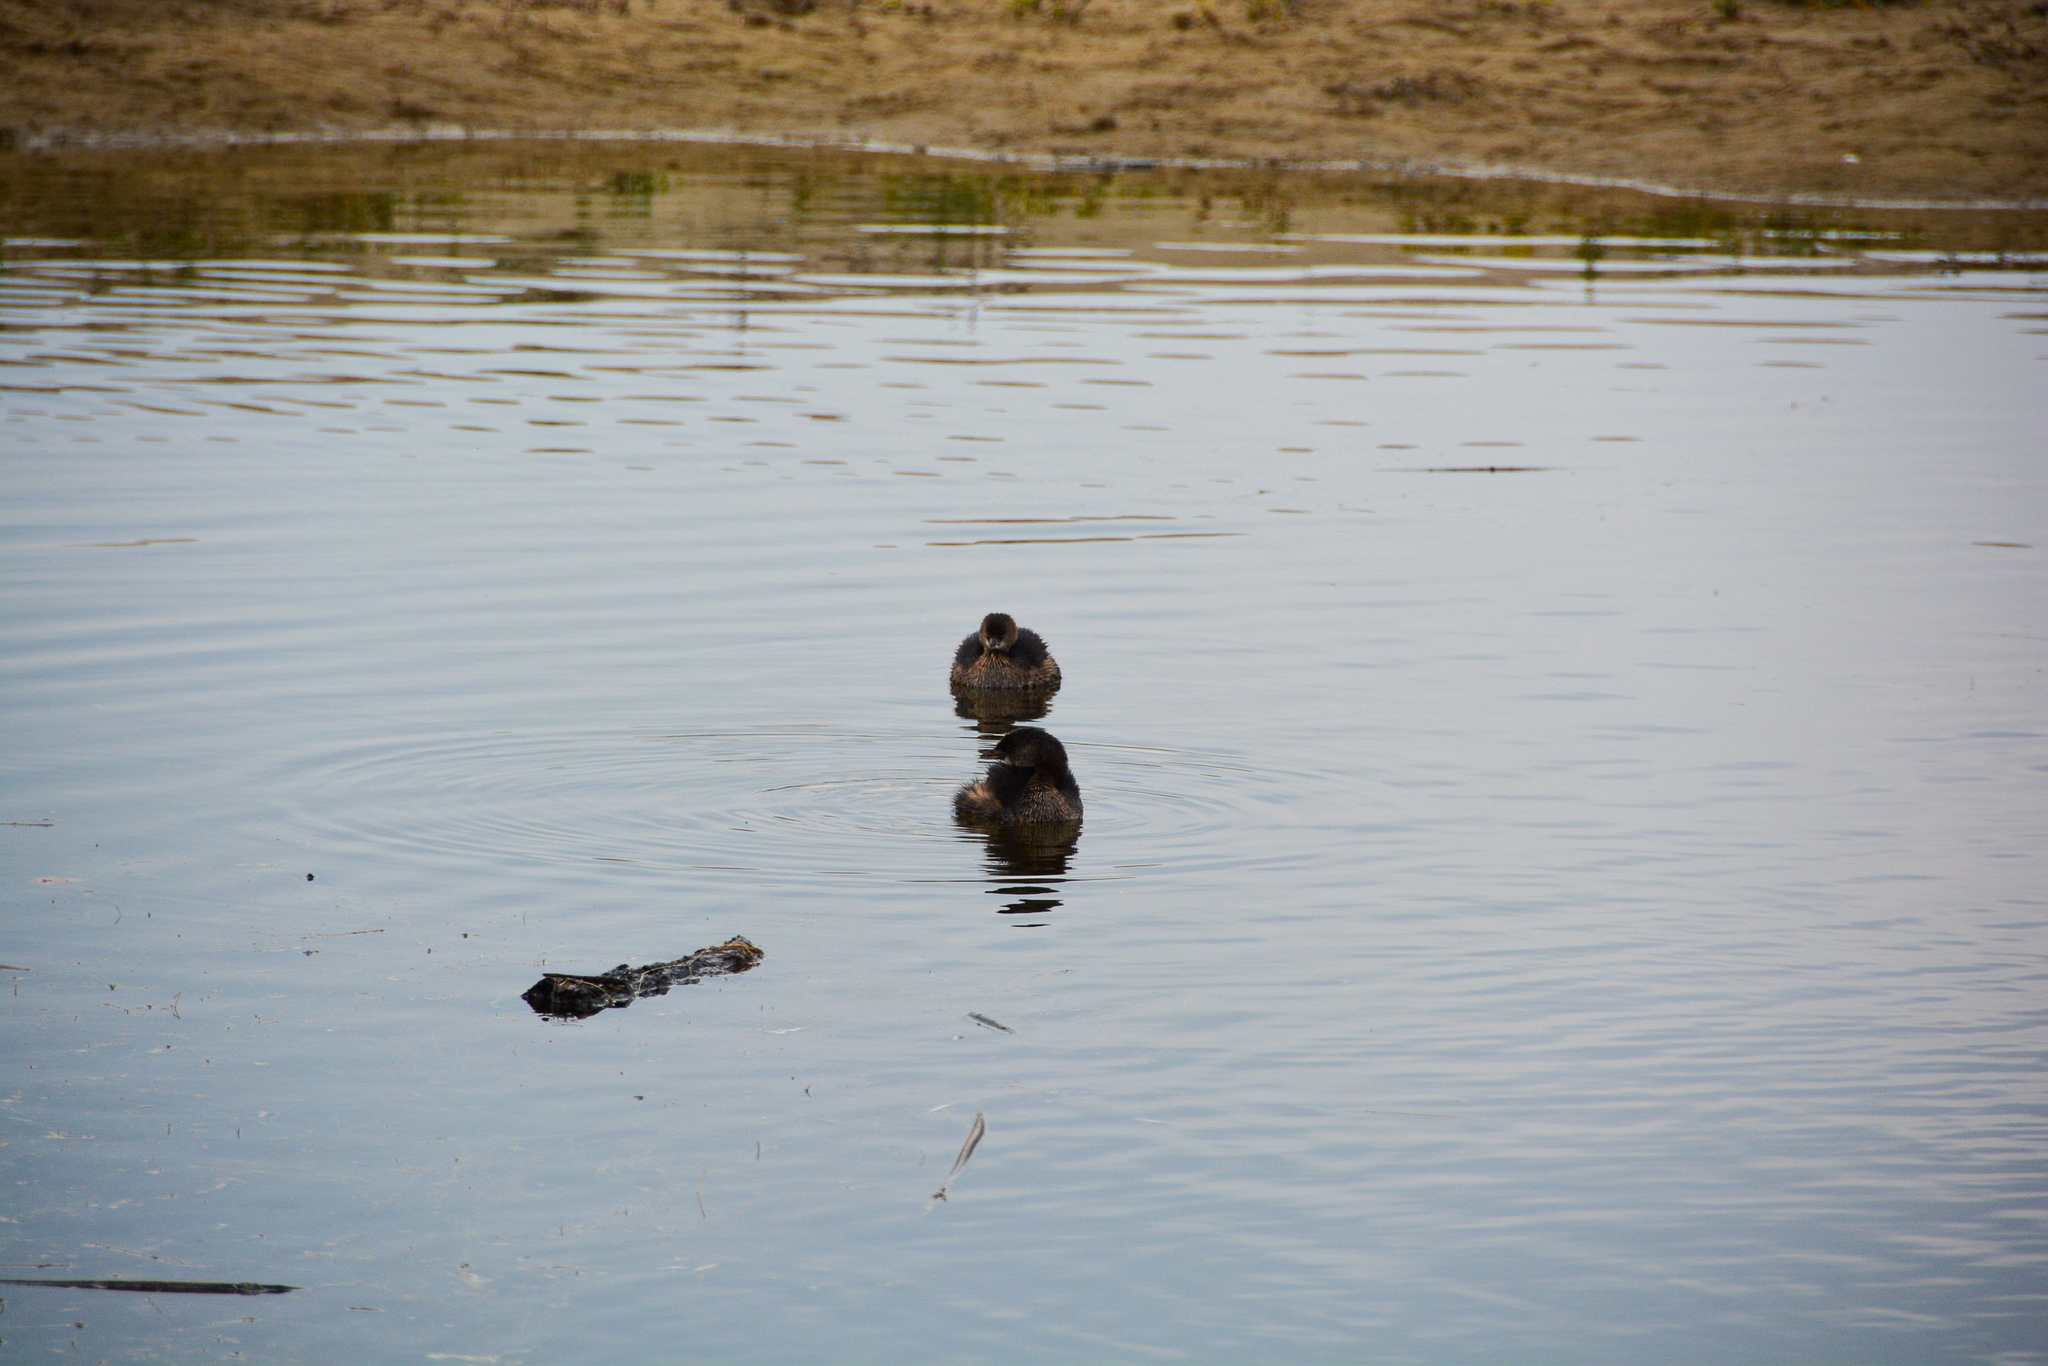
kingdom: Animalia
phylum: Chordata
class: Aves
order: Podicipediformes
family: Podicipedidae
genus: Podilymbus
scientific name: Podilymbus podiceps
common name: Pied-billed grebe
